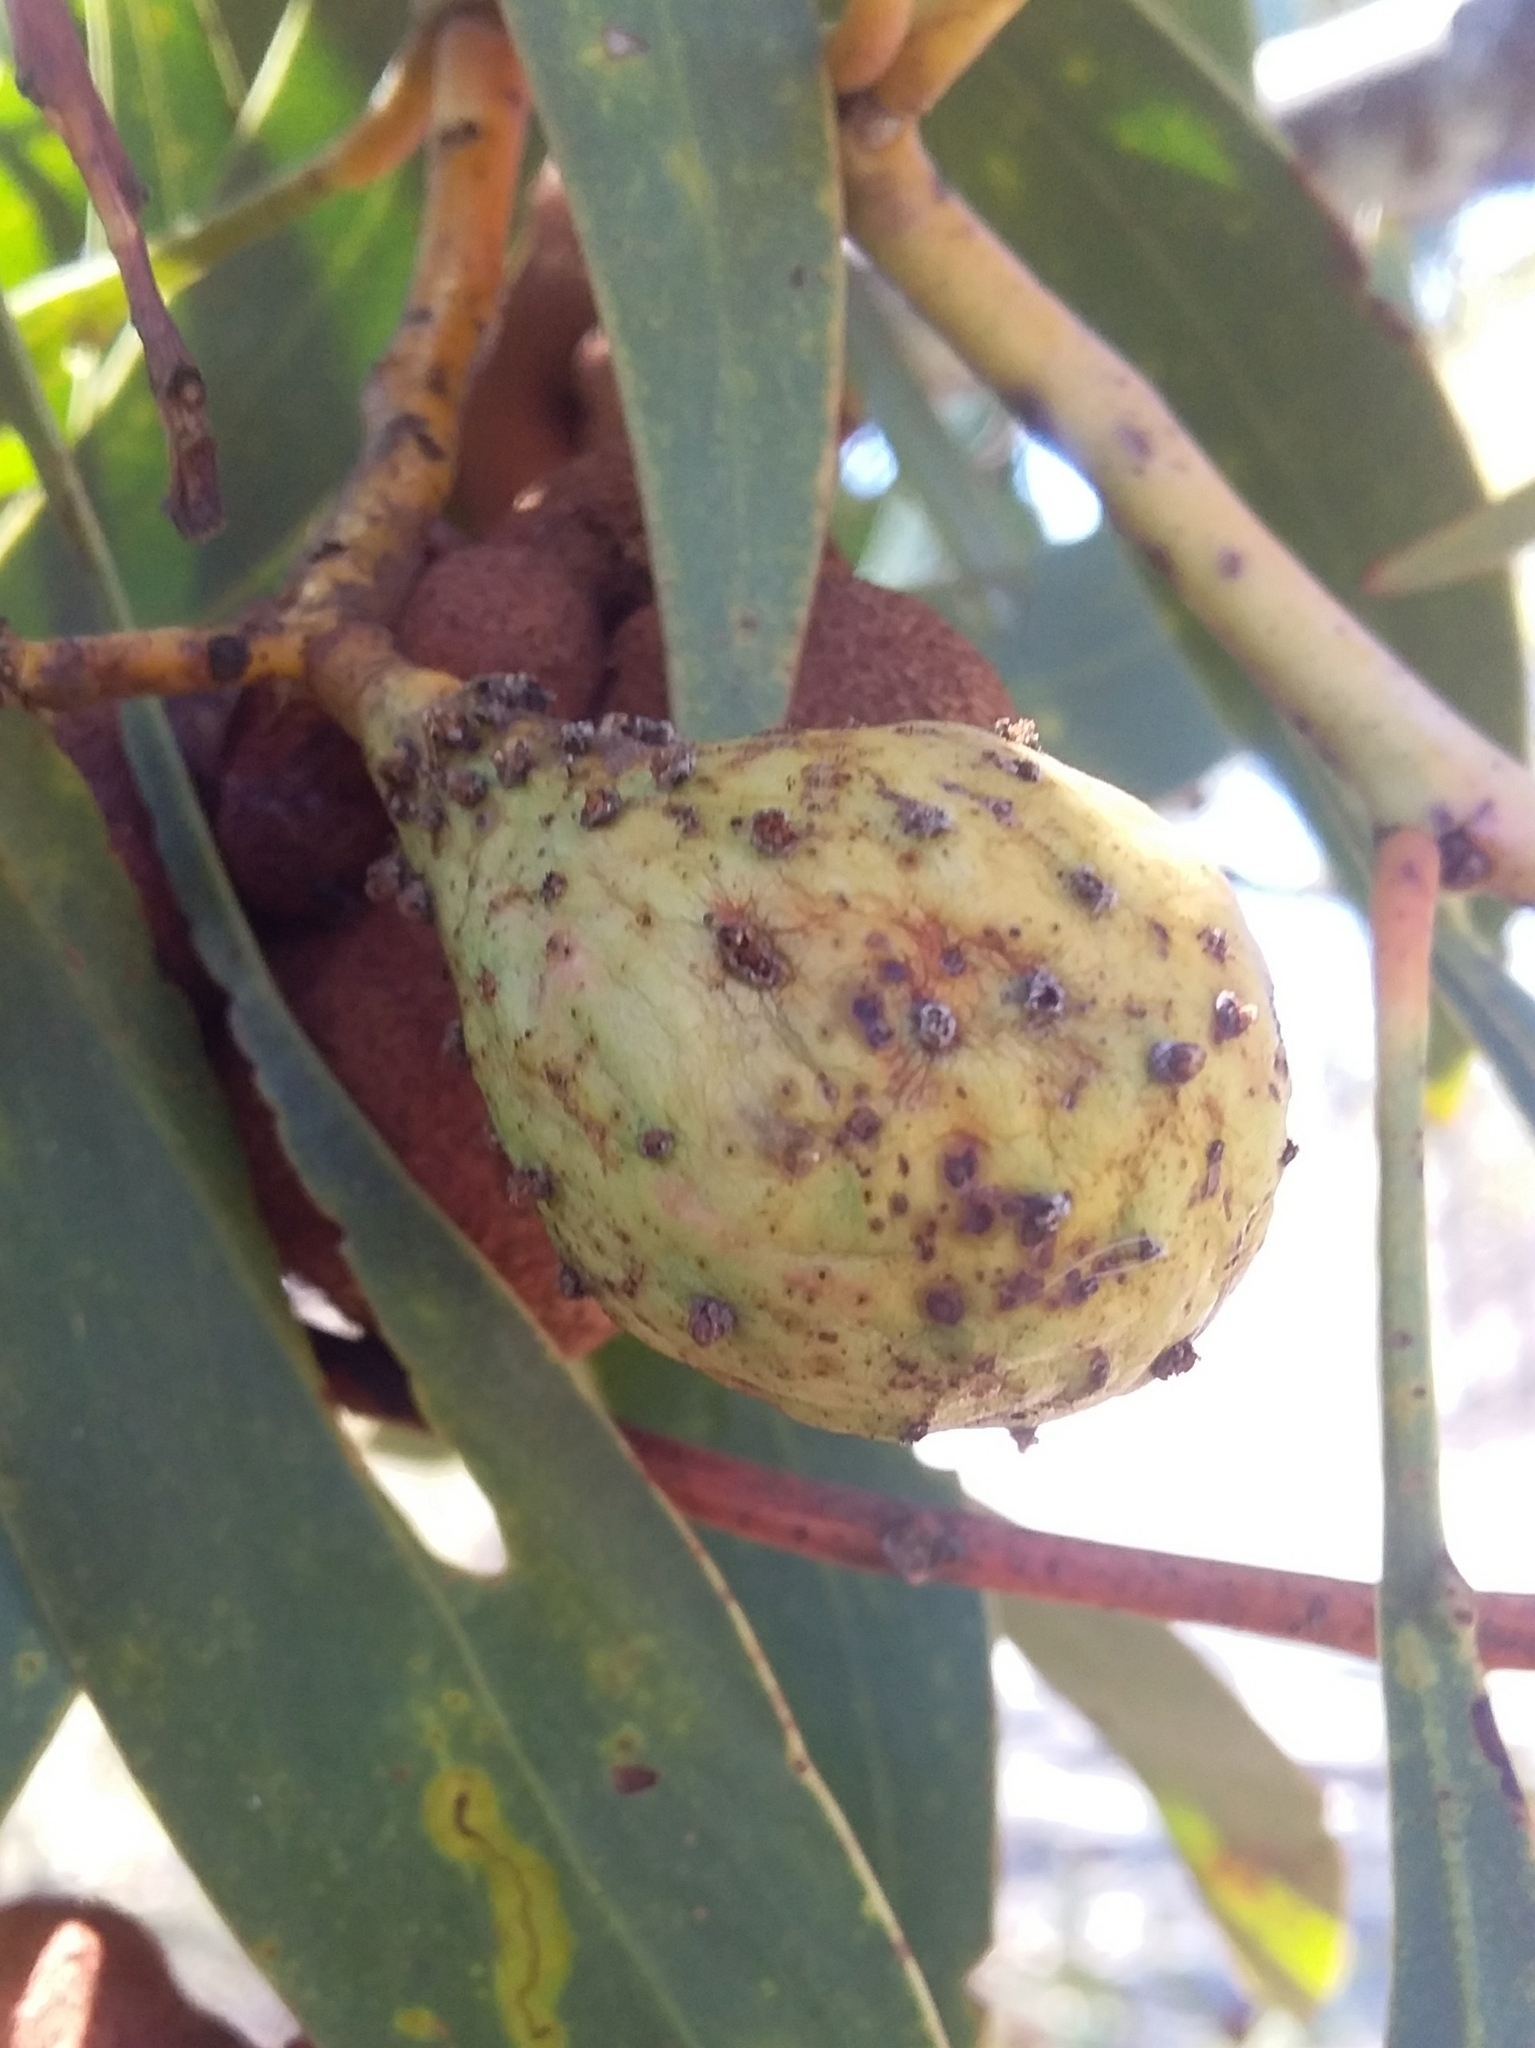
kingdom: Animalia
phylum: Arthropoda
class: Insecta
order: Hymenoptera
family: Pteromalidae
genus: Trichilogaster
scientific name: Trichilogaster signiventris
